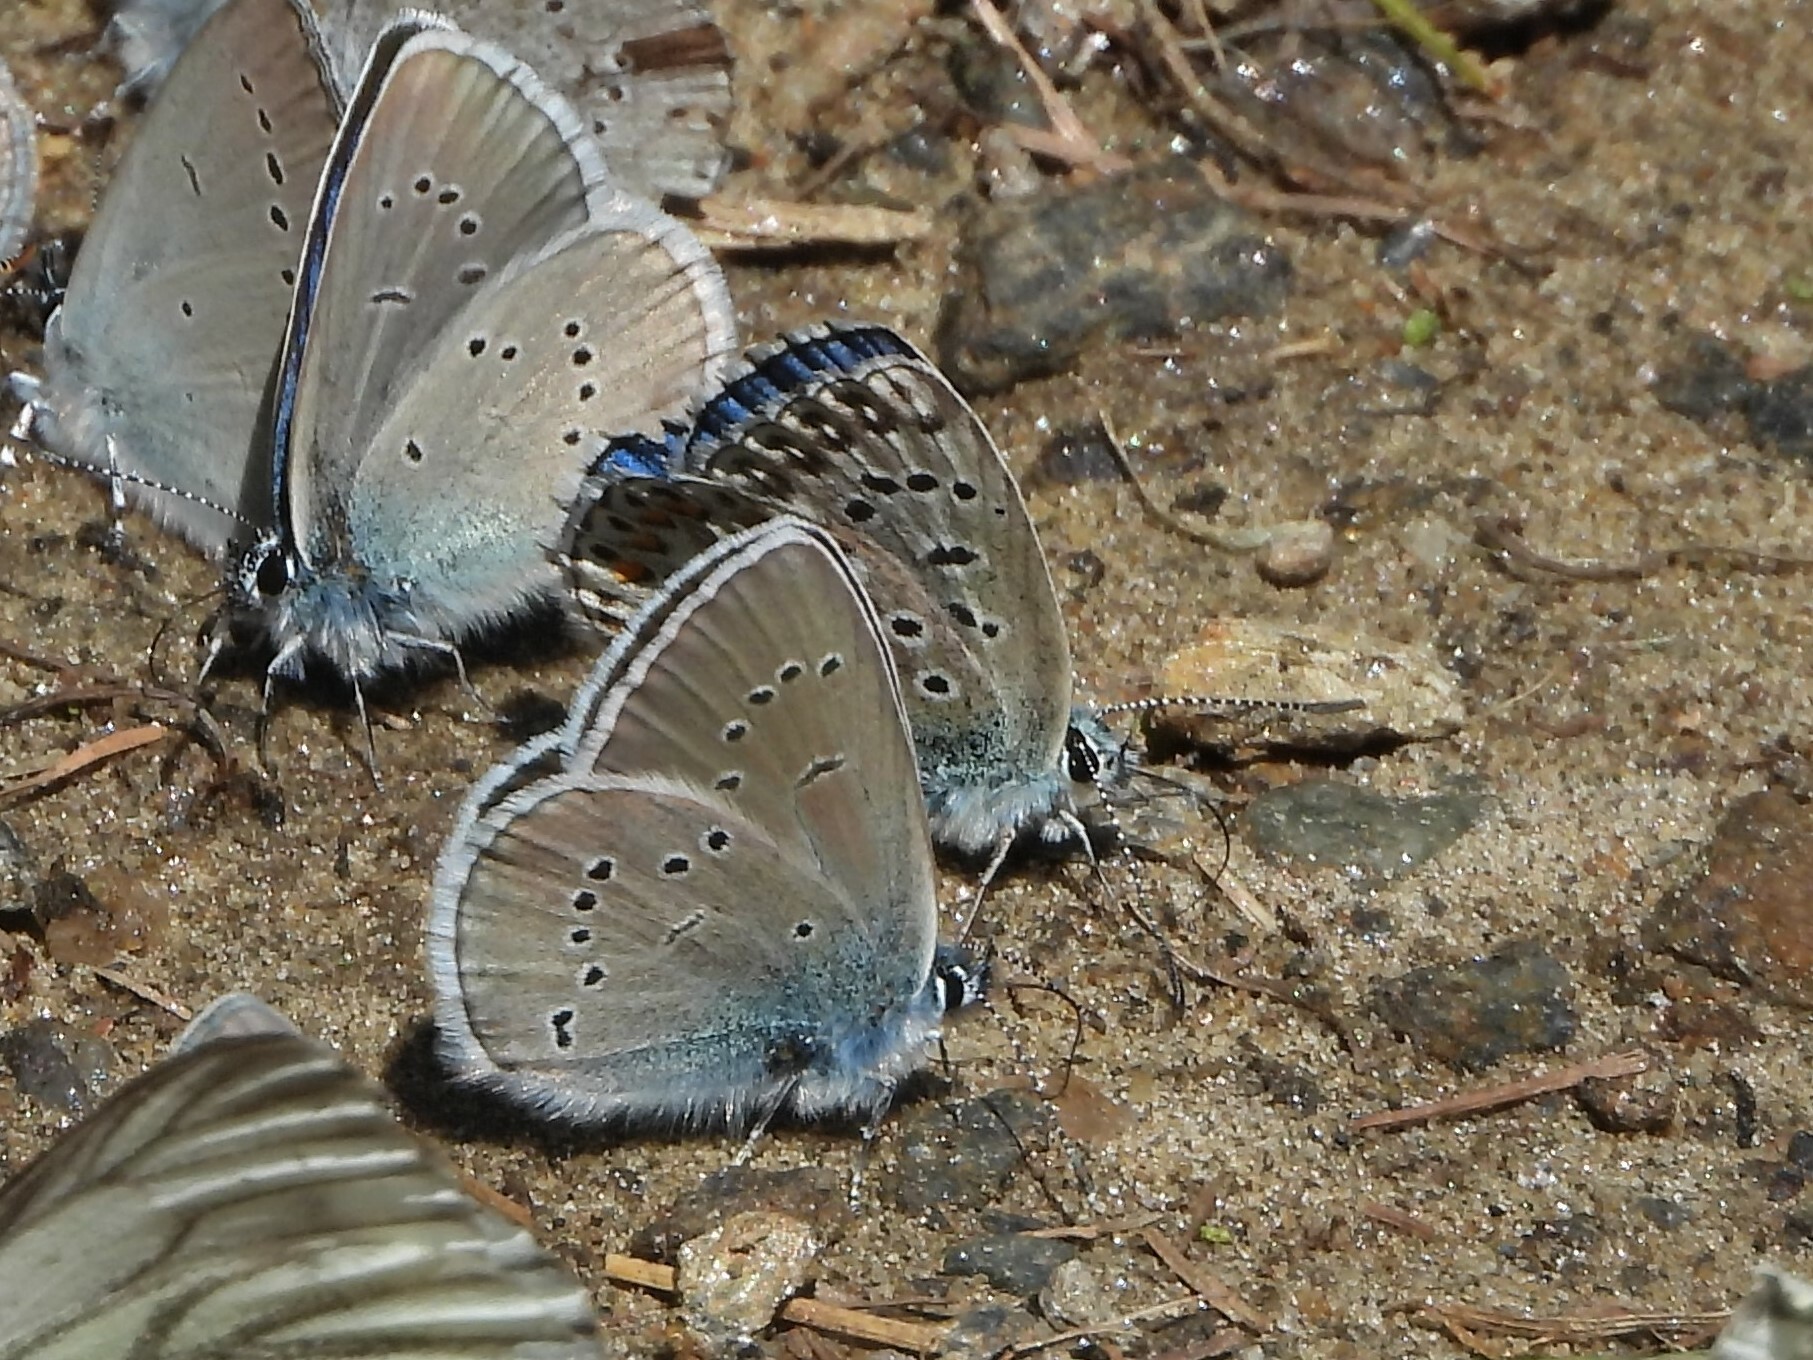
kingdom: Animalia
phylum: Arthropoda
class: Insecta
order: Lepidoptera
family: Lycaenidae
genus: Lysandra
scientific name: Lysandra bellargus
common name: Adonis blue
